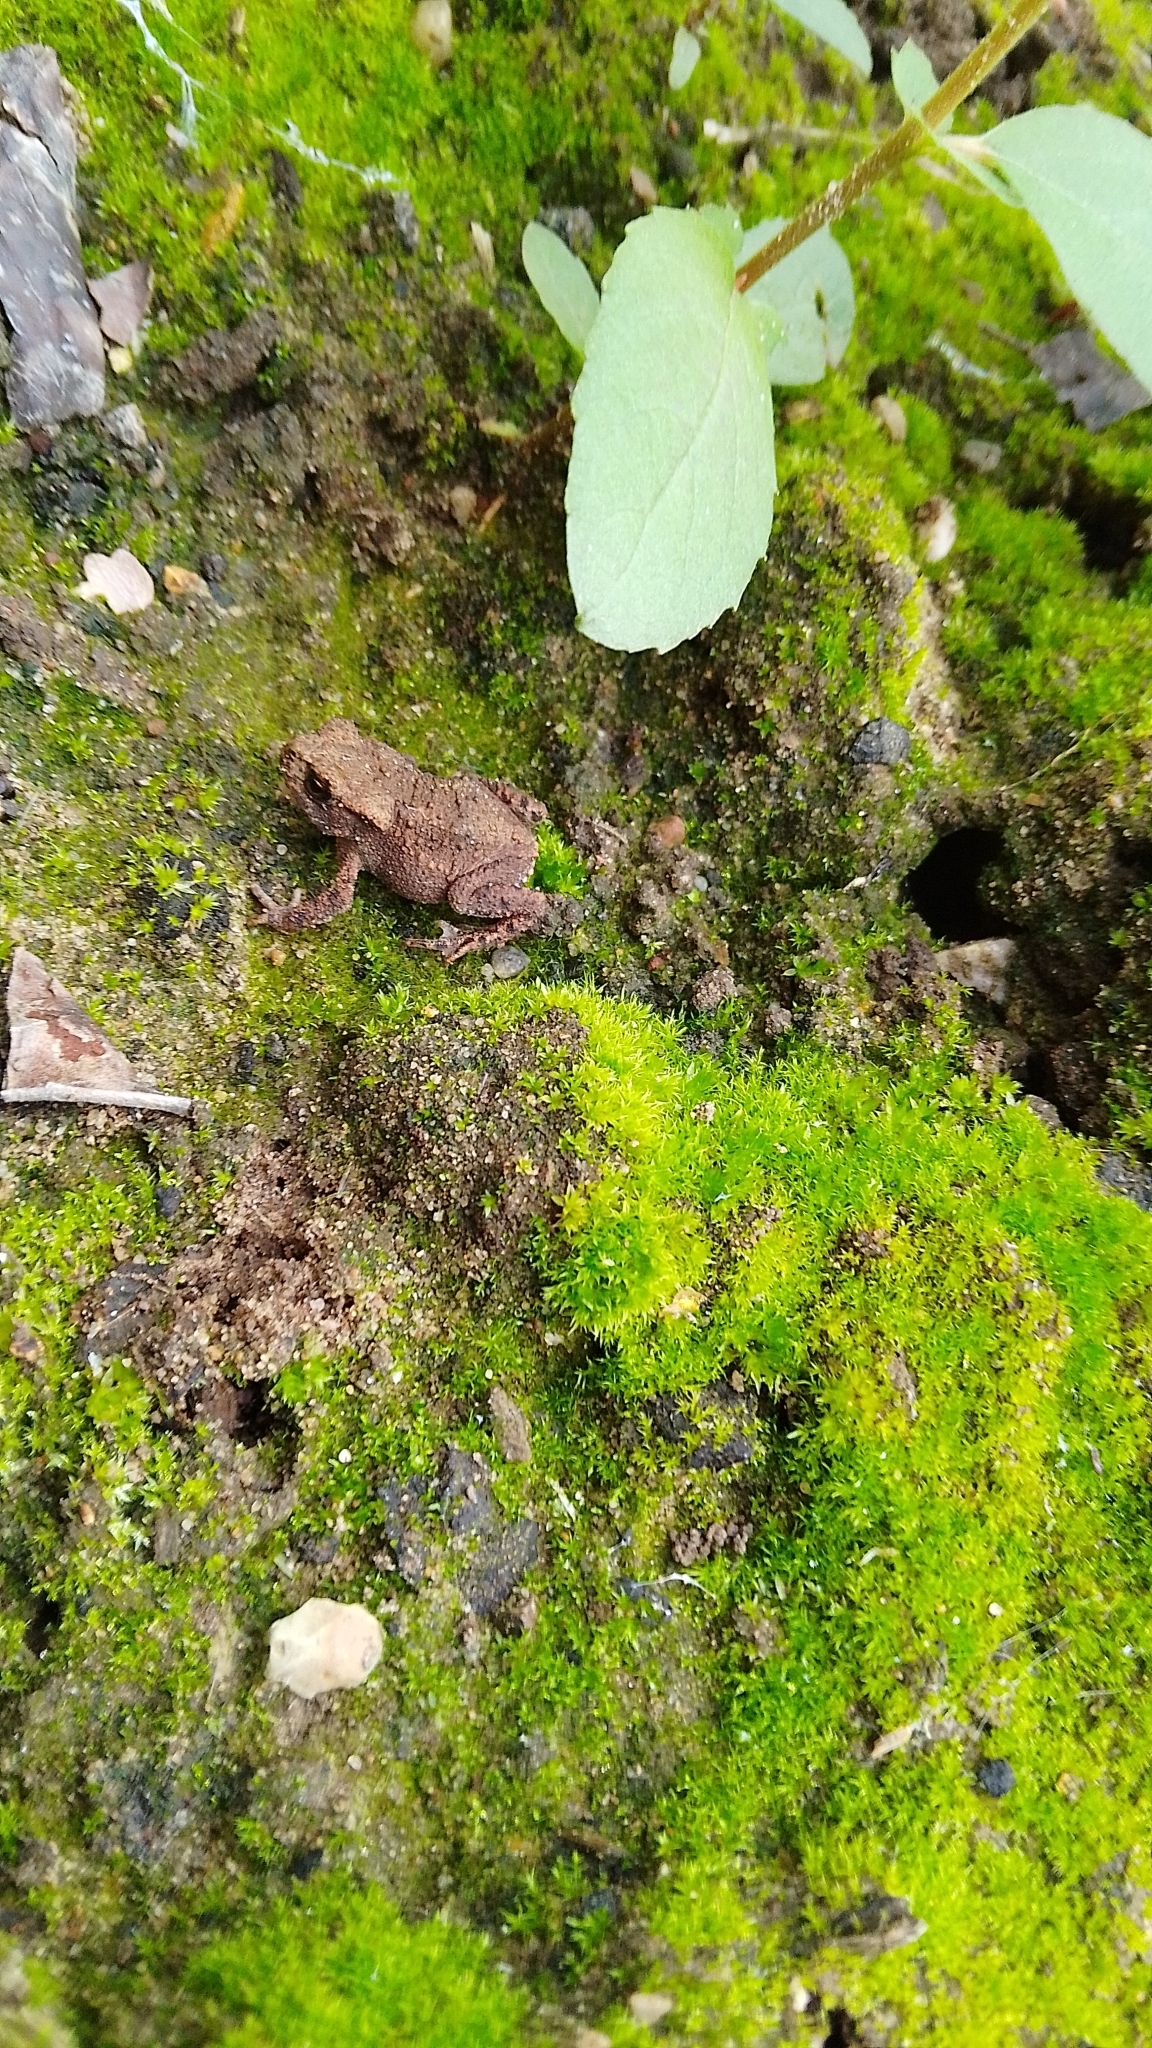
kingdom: Animalia
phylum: Chordata
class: Amphibia
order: Anura
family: Bufonidae
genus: Bufo
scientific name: Bufo bufo
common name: Common toad
